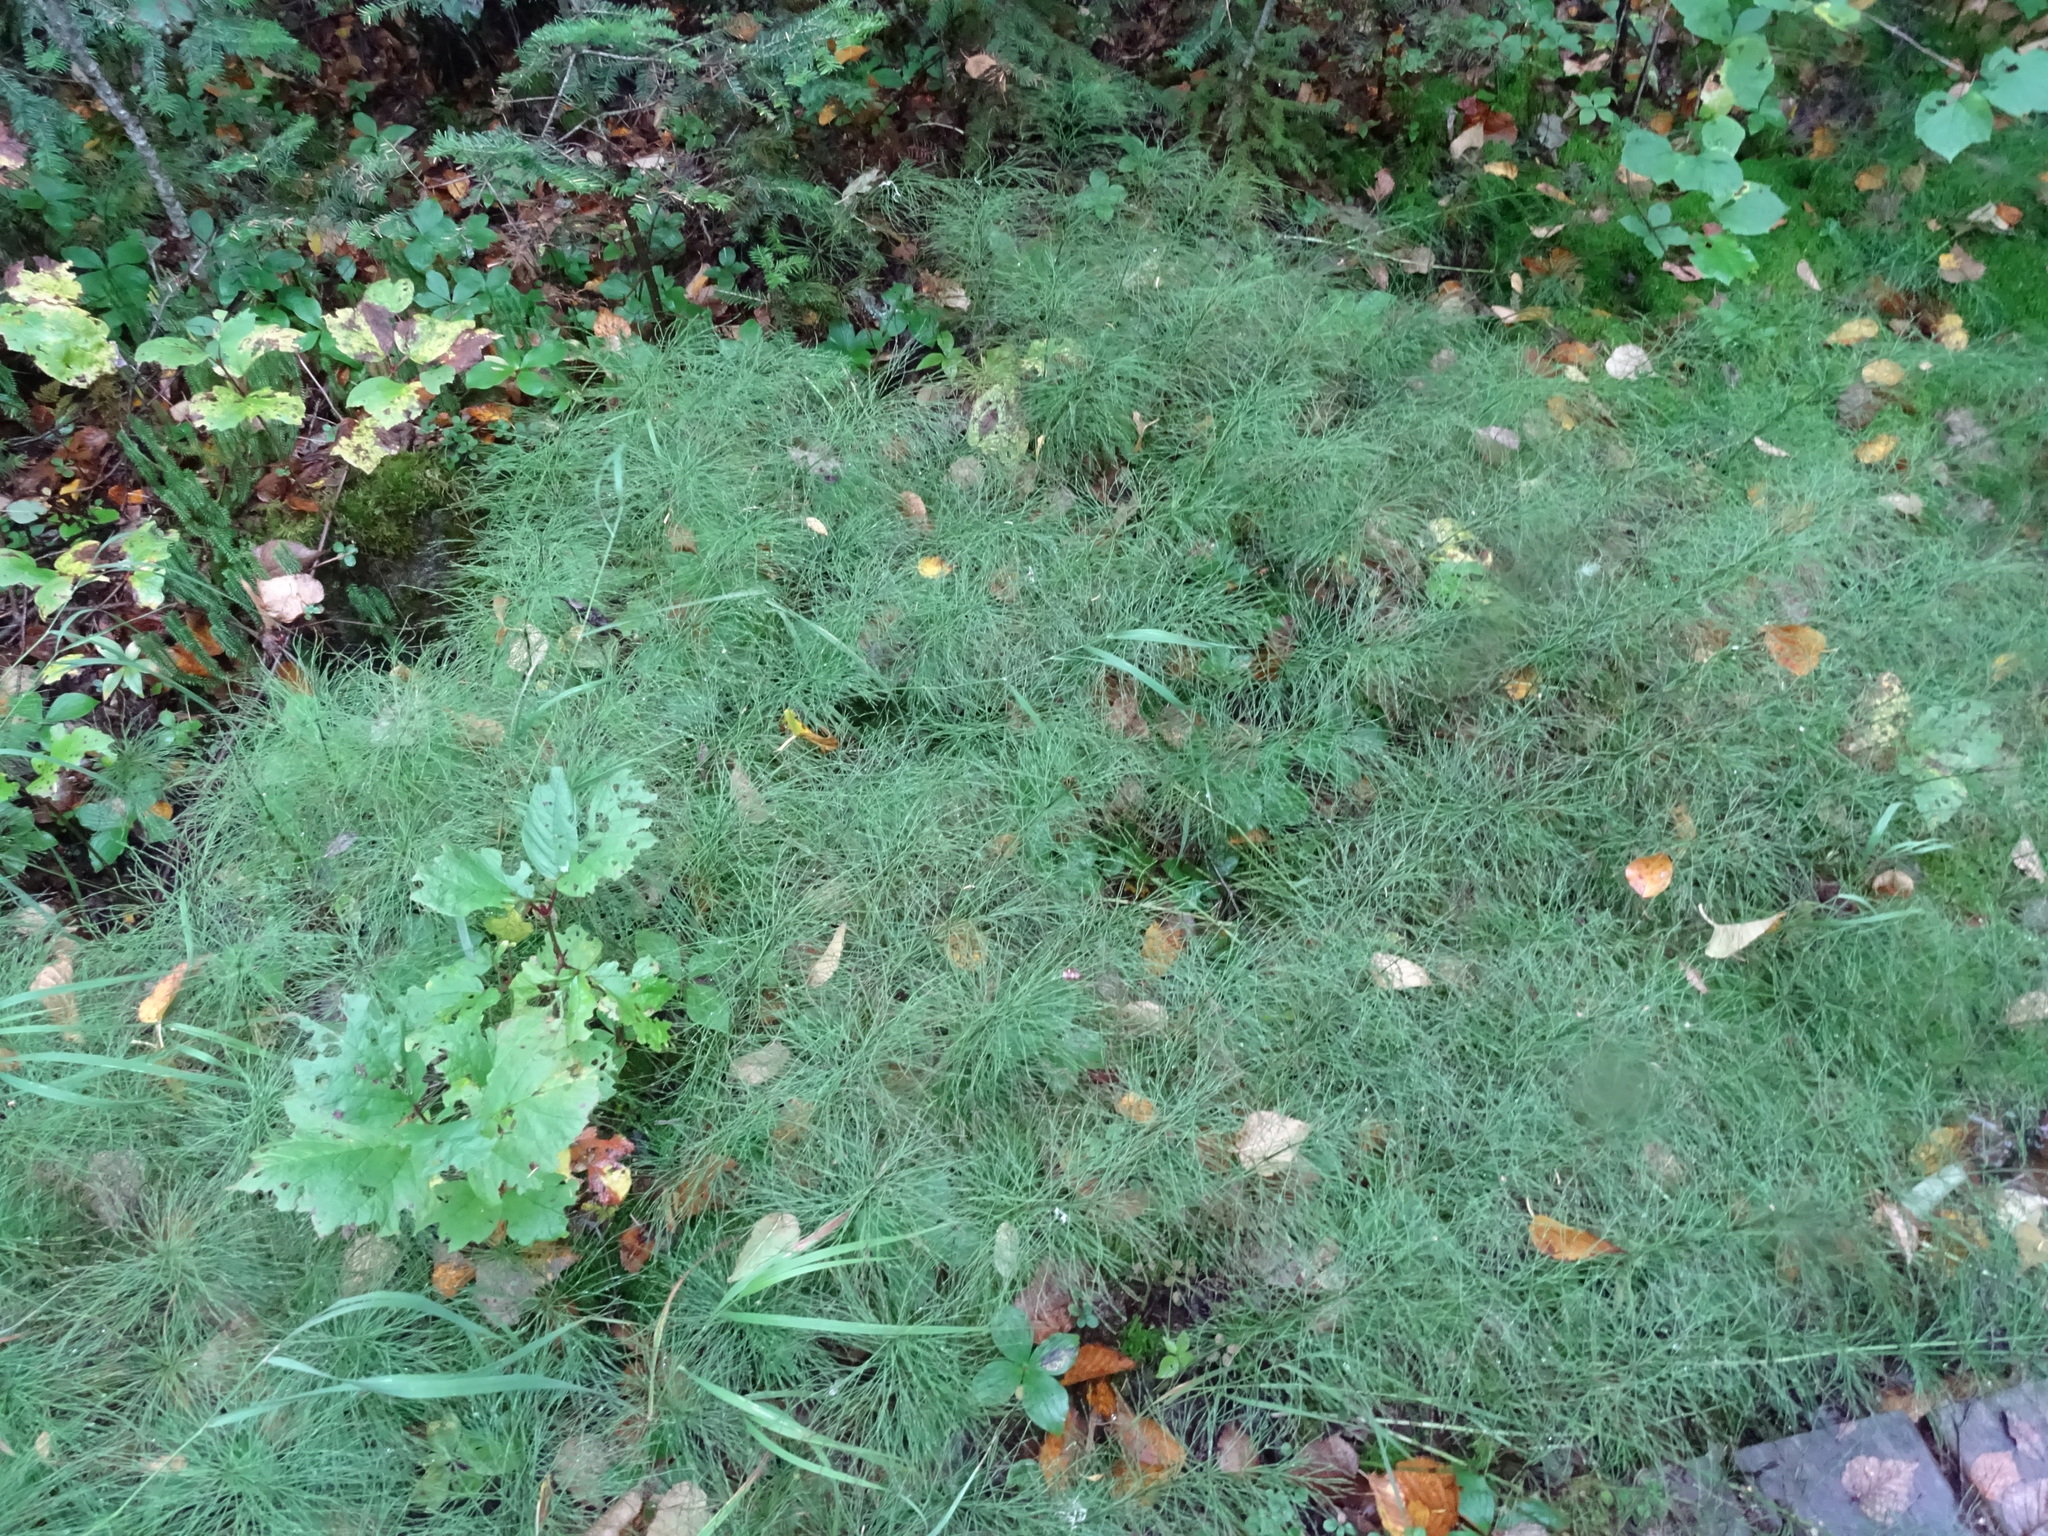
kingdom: Plantae
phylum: Tracheophyta
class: Polypodiopsida
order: Equisetales
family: Equisetaceae
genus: Equisetum
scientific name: Equisetum sylvaticum
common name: Wood horsetail
